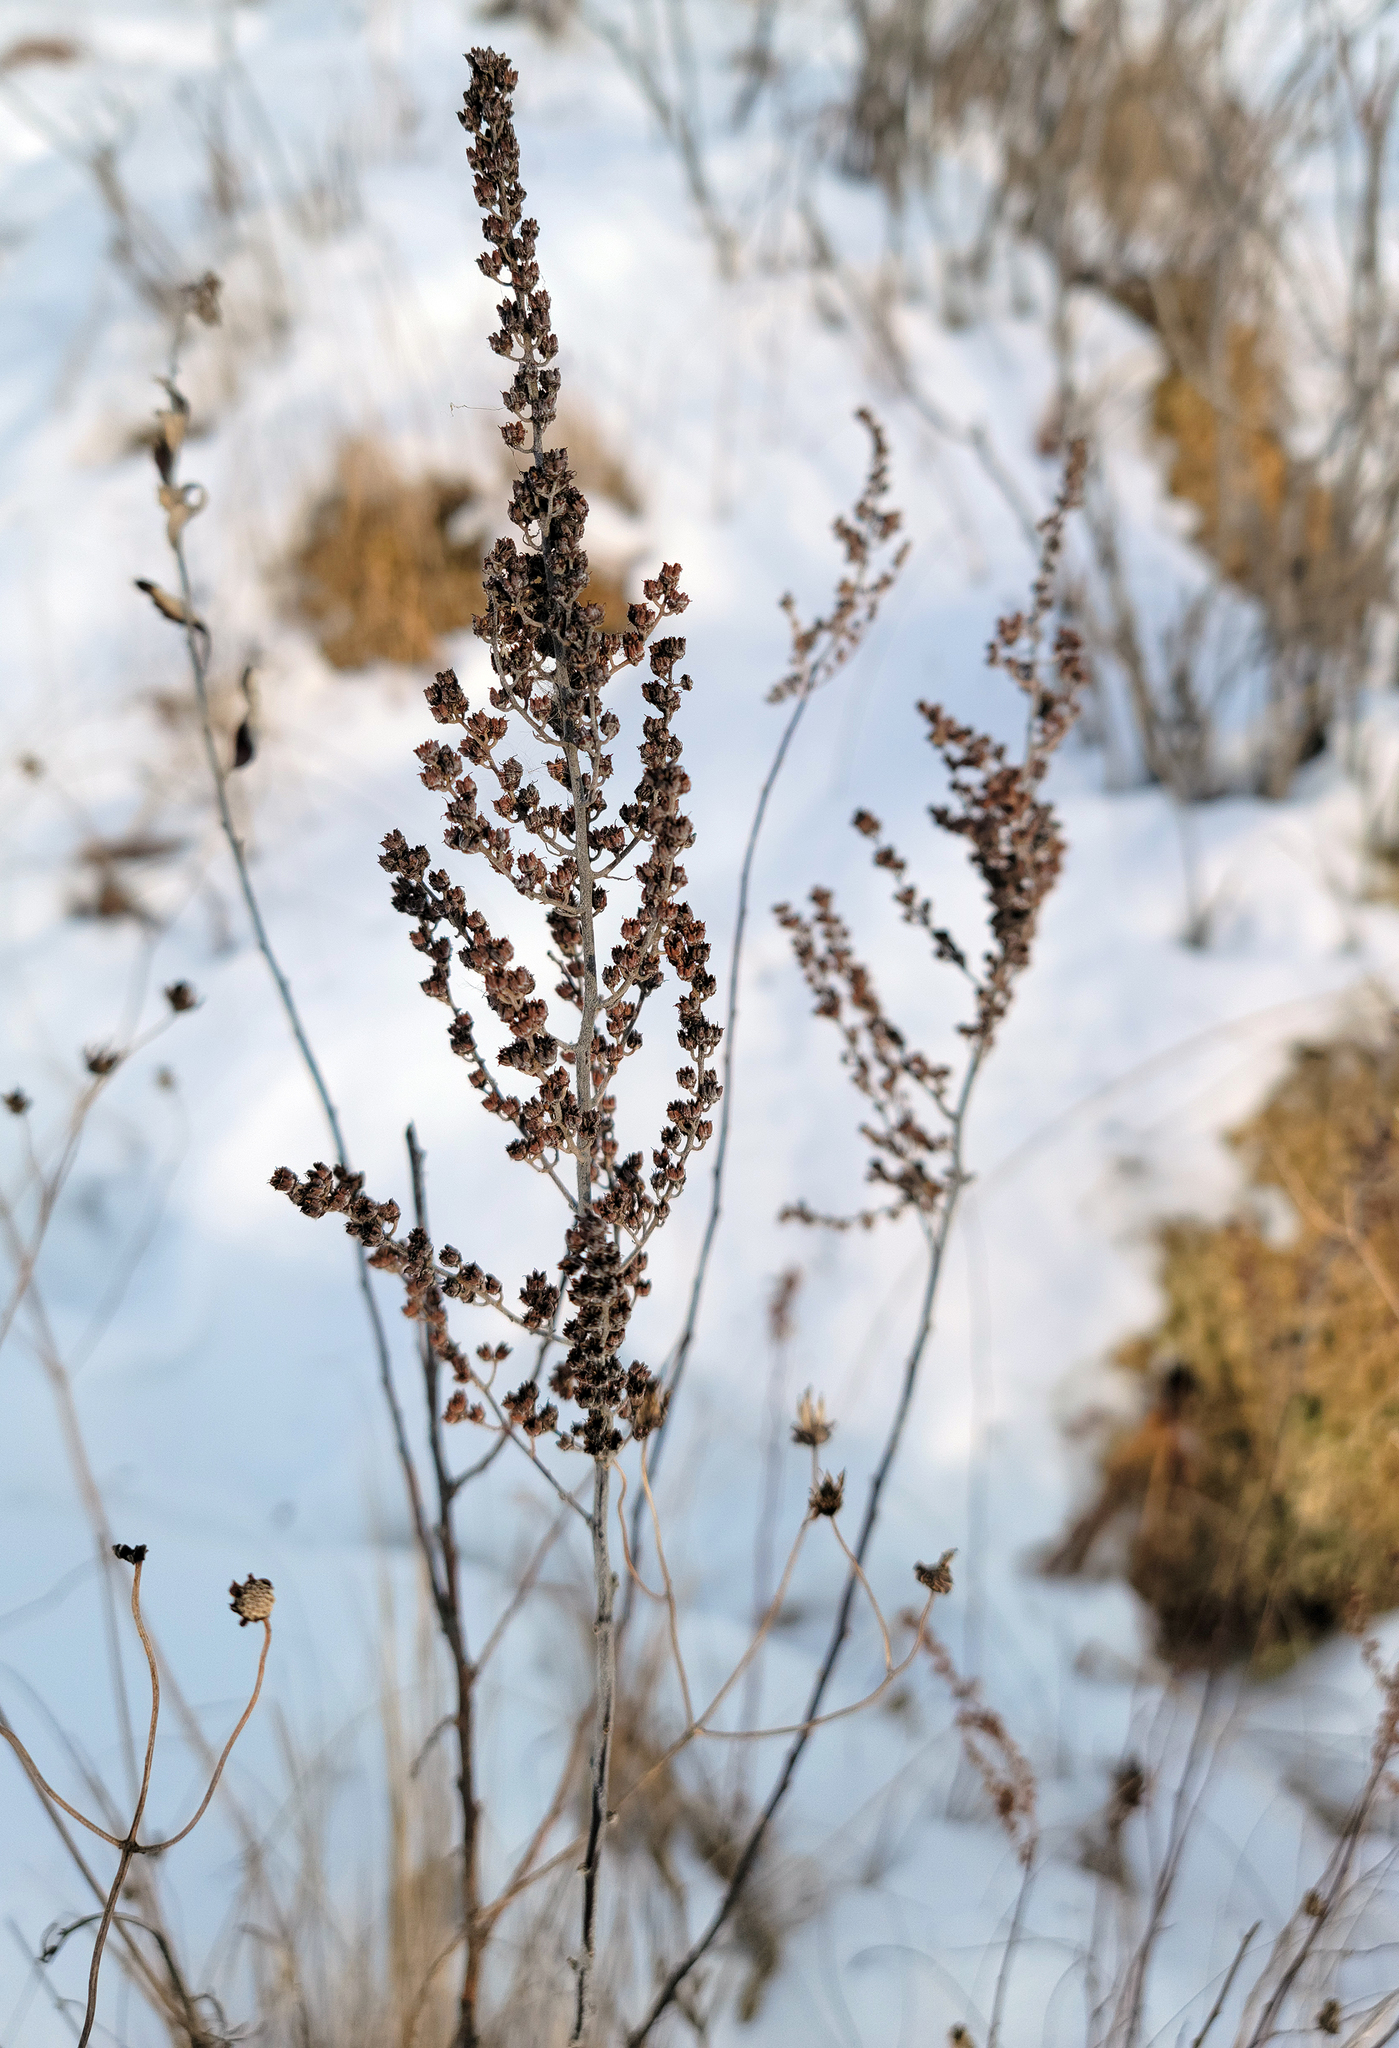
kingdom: Plantae
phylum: Tracheophyta
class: Magnoliopsida
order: Rosales
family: Rosaceae
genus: Spiraea
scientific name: Spiraea alba
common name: Pale bridewort
